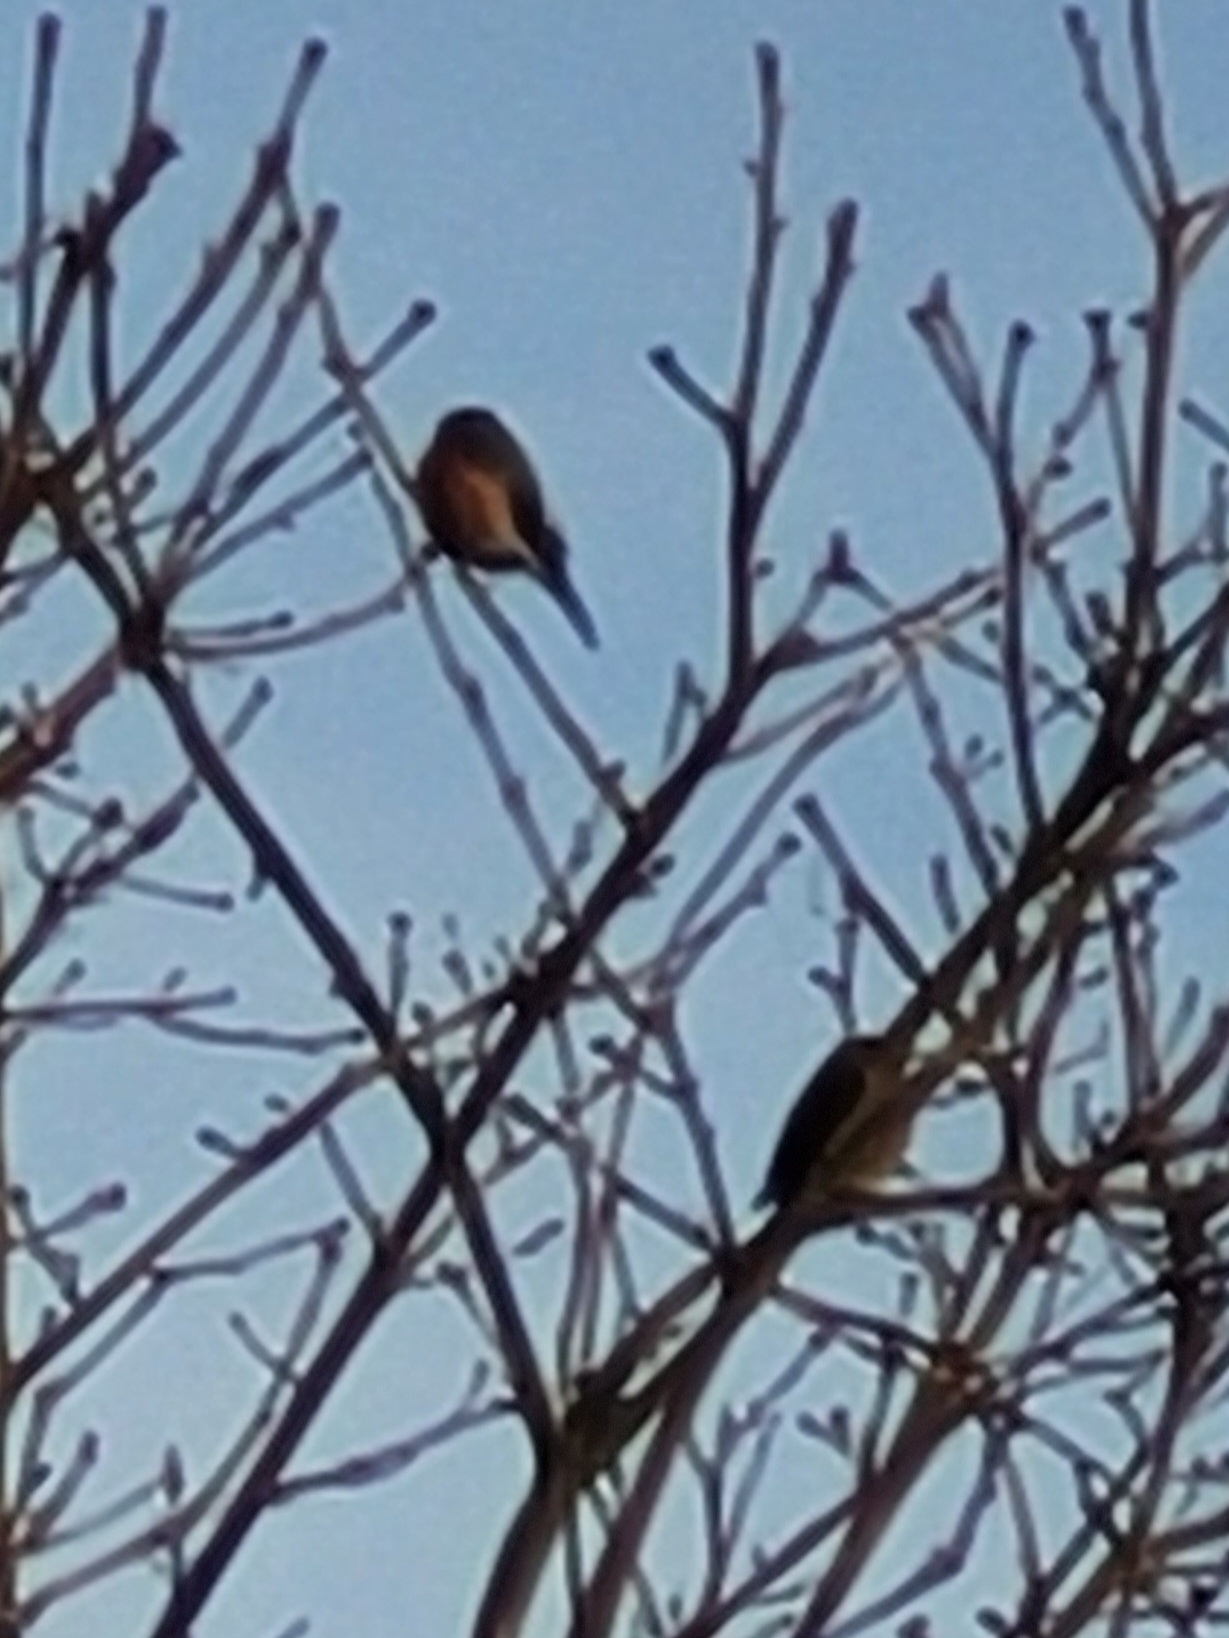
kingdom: Animalia
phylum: Chordata
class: Aves
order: Passeriformes
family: Fringillidae
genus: Pyrrhula
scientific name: Pyrrhula pyrrhula
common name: Eurasian bullfinch
